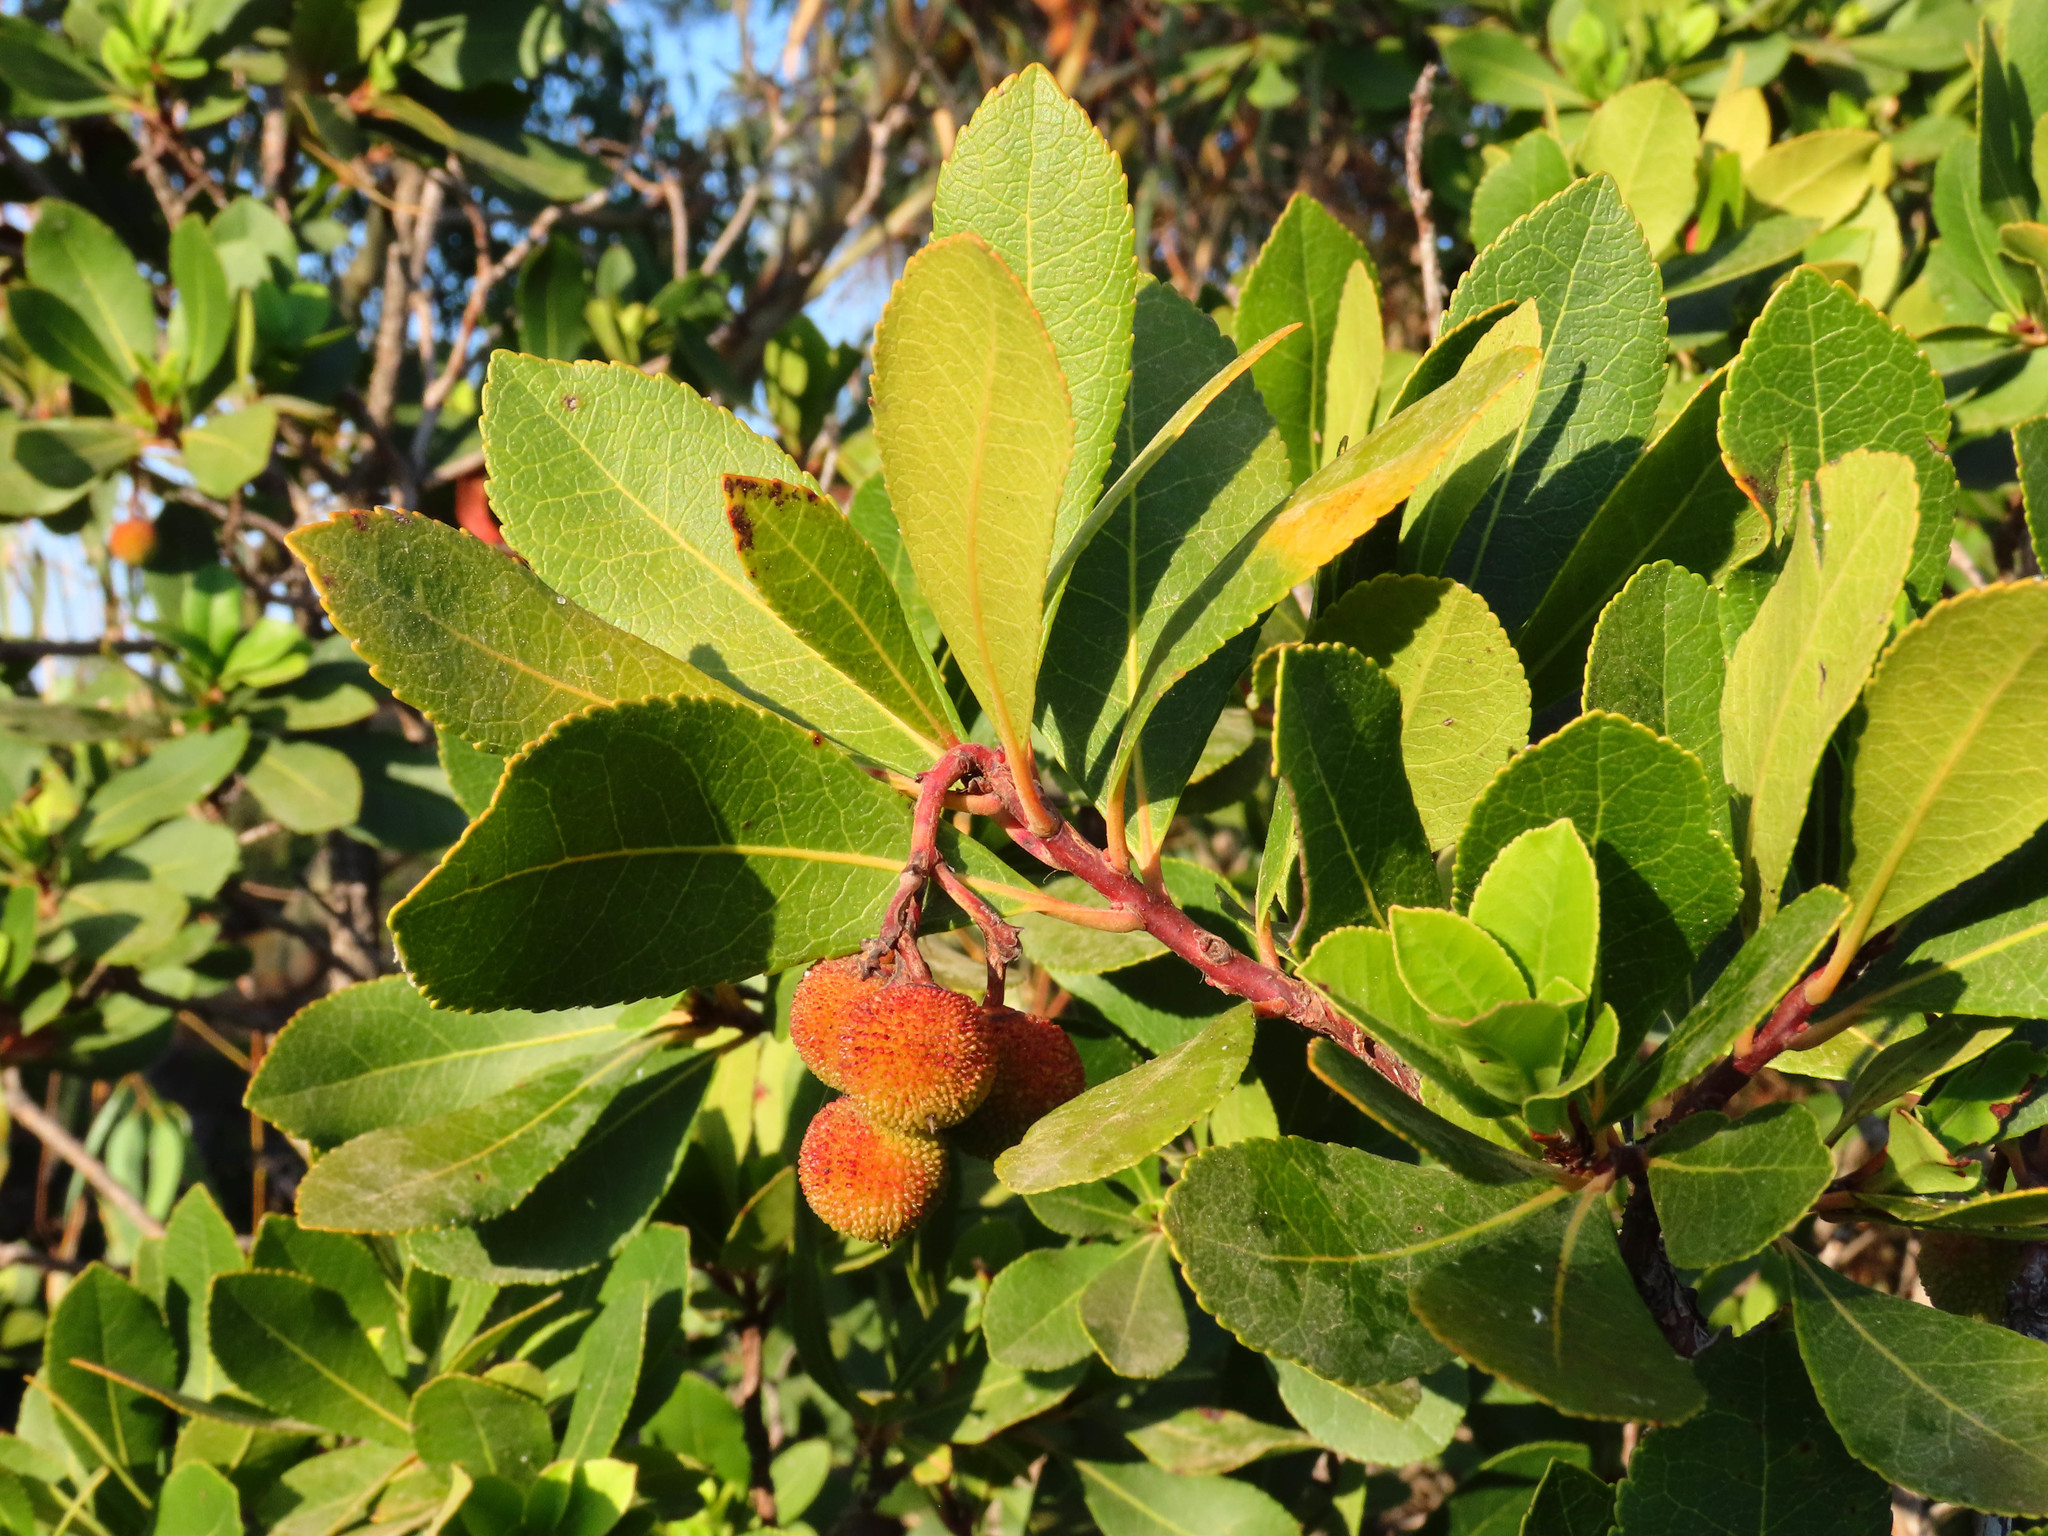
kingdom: Plantae
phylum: Tracheophyta
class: Magnoliopsida
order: Ericales
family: Ericaceae
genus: Arbutus
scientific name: Arbutus unedo
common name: Strawberry-tree
